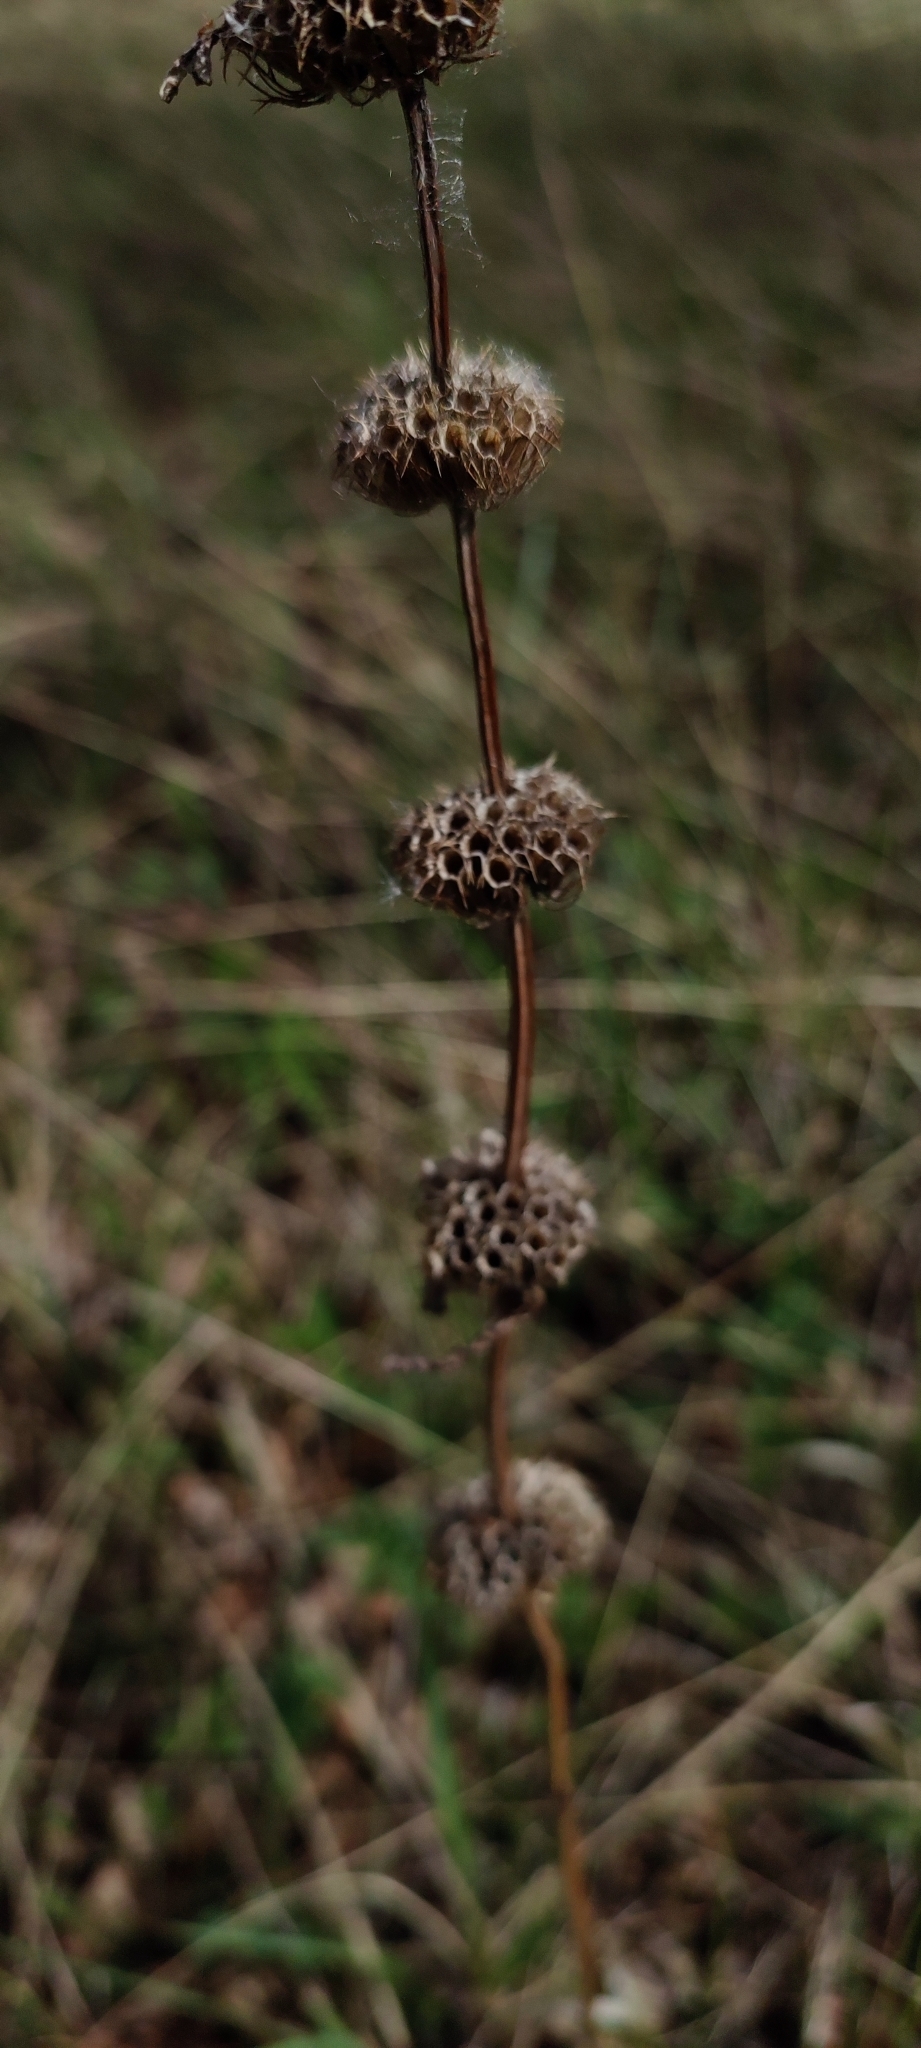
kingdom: Plantae
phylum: Tracheophyta
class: Magnoliopsida
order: Lamiales
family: Lamiaceae
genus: Phlomoides
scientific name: Phlomoides tuberosa
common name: Tuberous jerusalem sage
